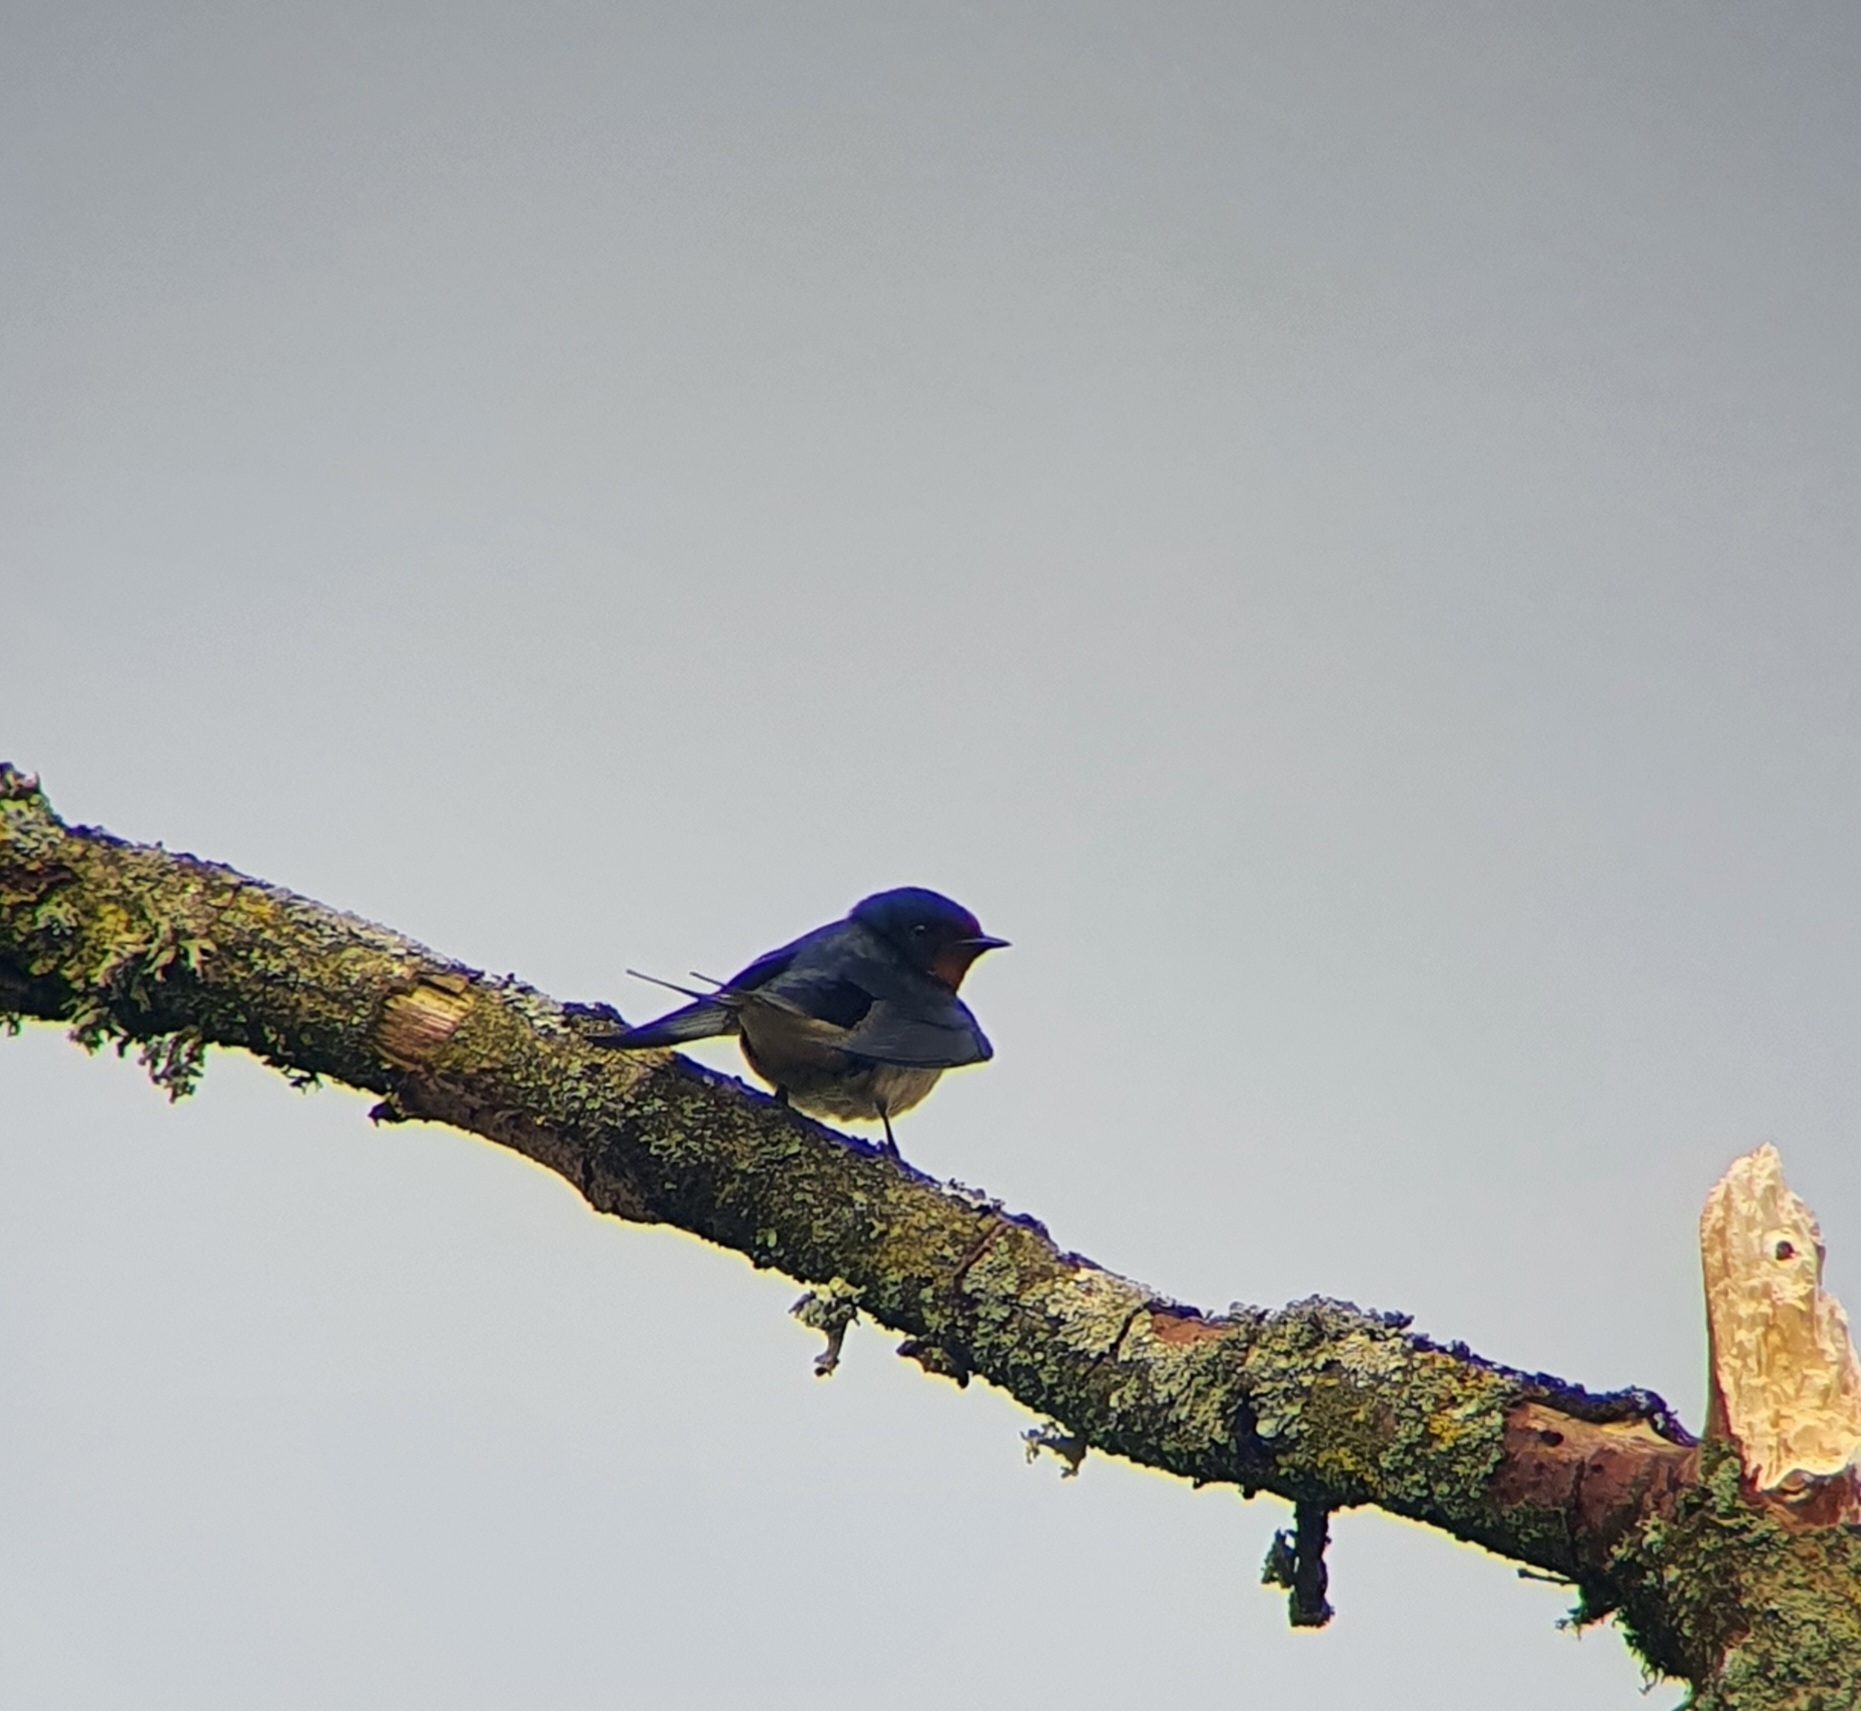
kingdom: Animalia
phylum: Chordata
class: Aves
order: Passeriformes
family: Hirundinidae
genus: Hirundo
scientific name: Hirundo rustica
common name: Barn swallow
